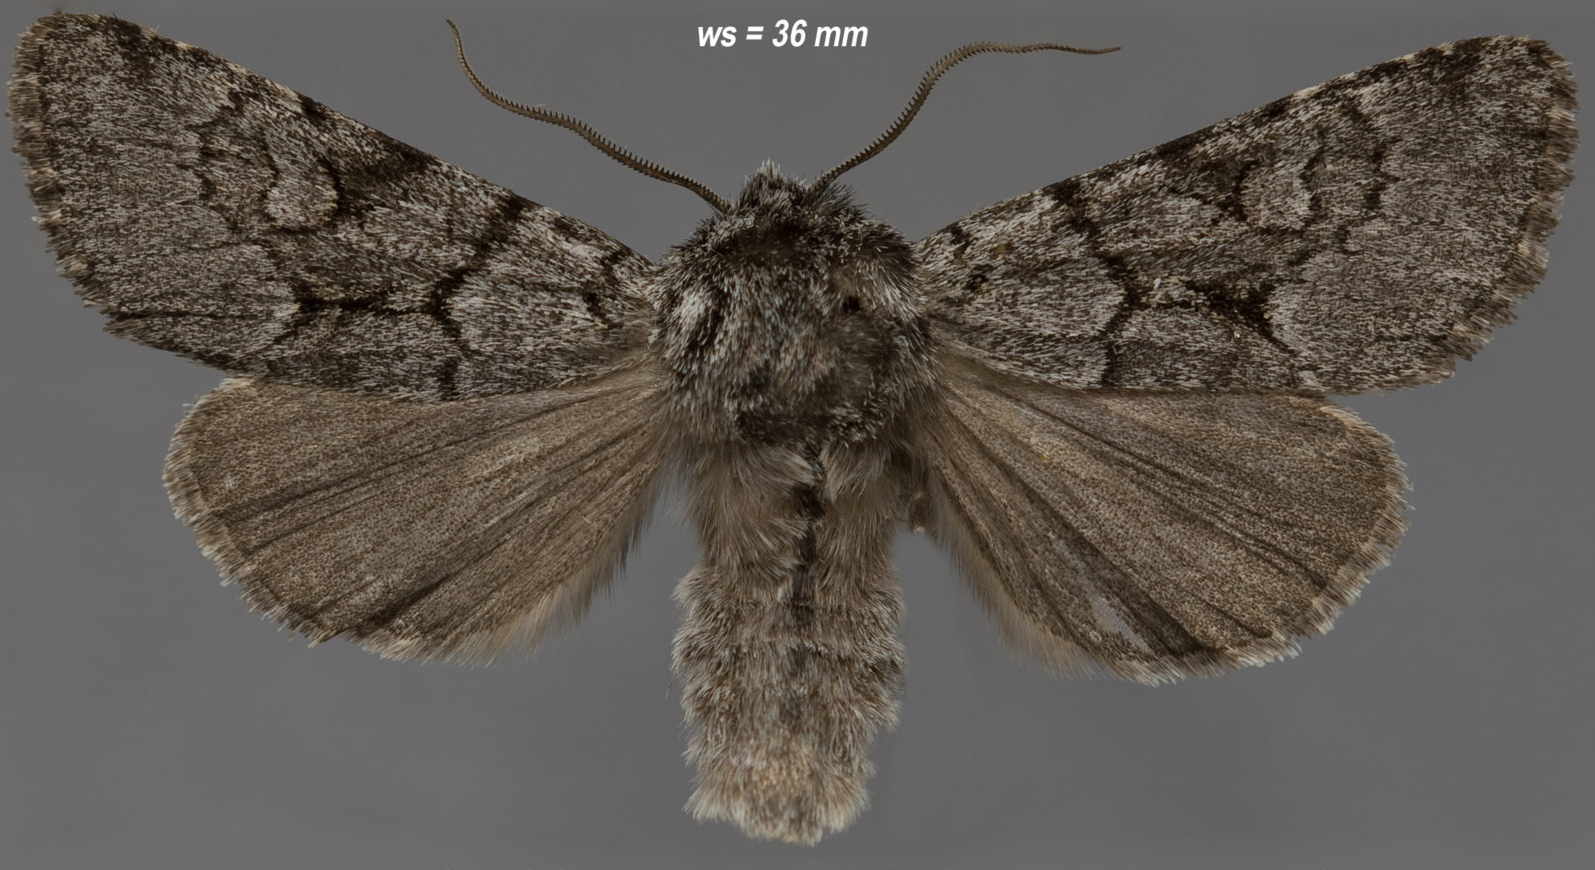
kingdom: Animalia
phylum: Arthropoda
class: Insecta
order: Lepidoptera
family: Noctuidae
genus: Lasionycta
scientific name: Lasionycta fergusoni
